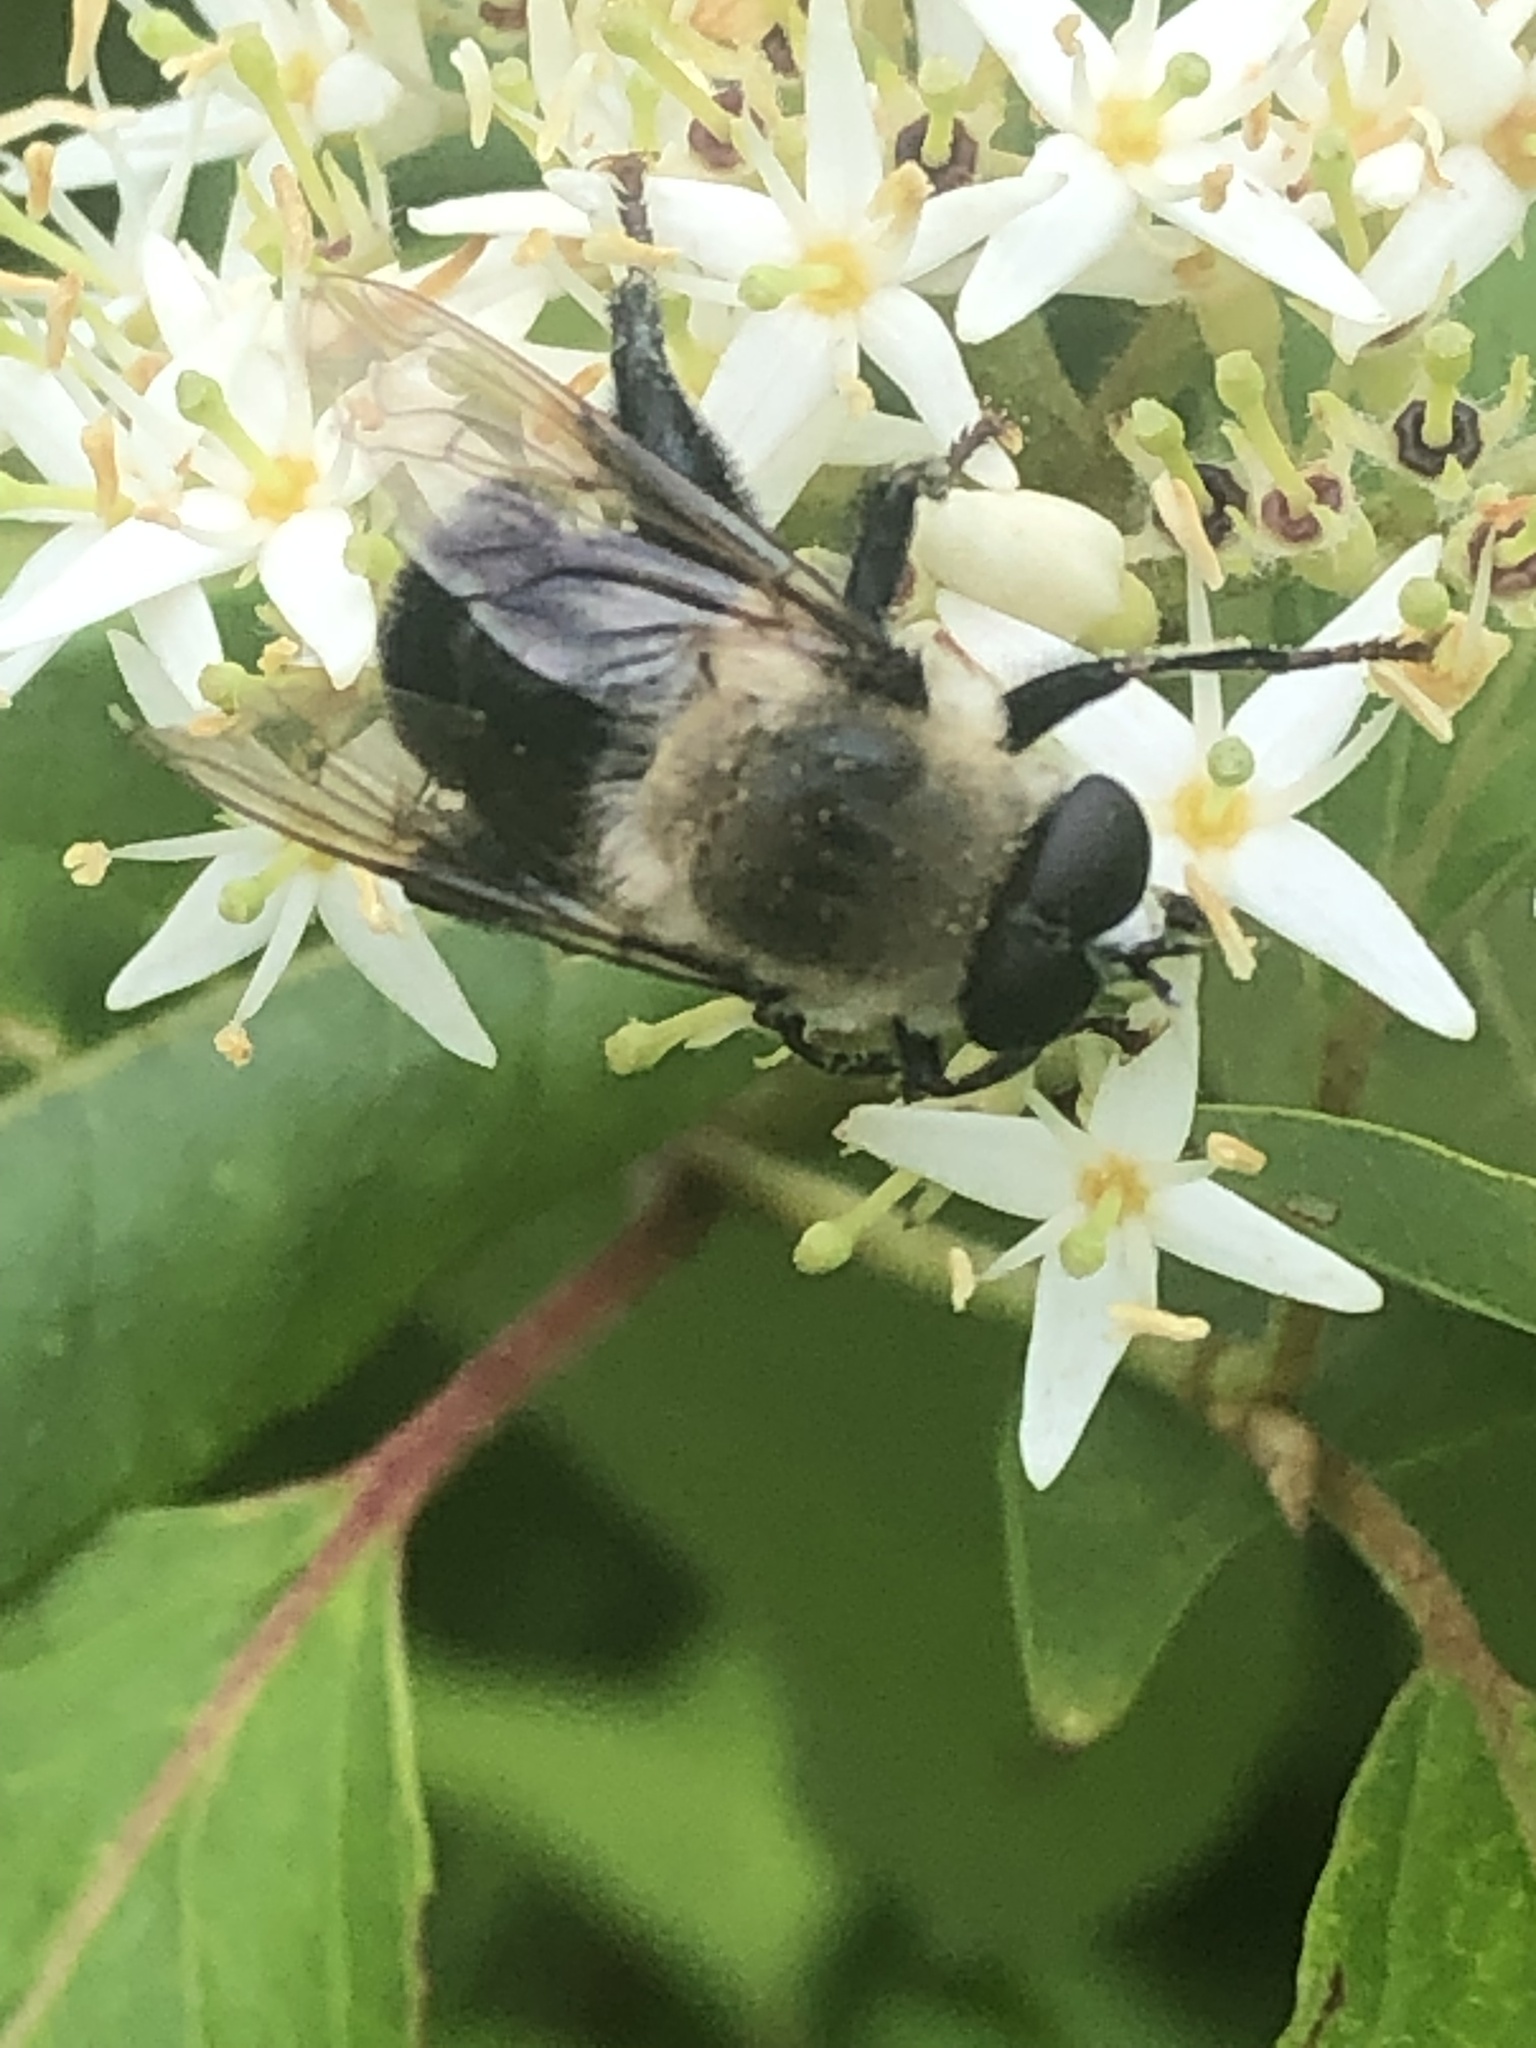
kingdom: Animalia
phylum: Arthropoda
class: Insecta
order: Diptera
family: Syrphidae
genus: Imatisma
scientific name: Imatisma bautias
